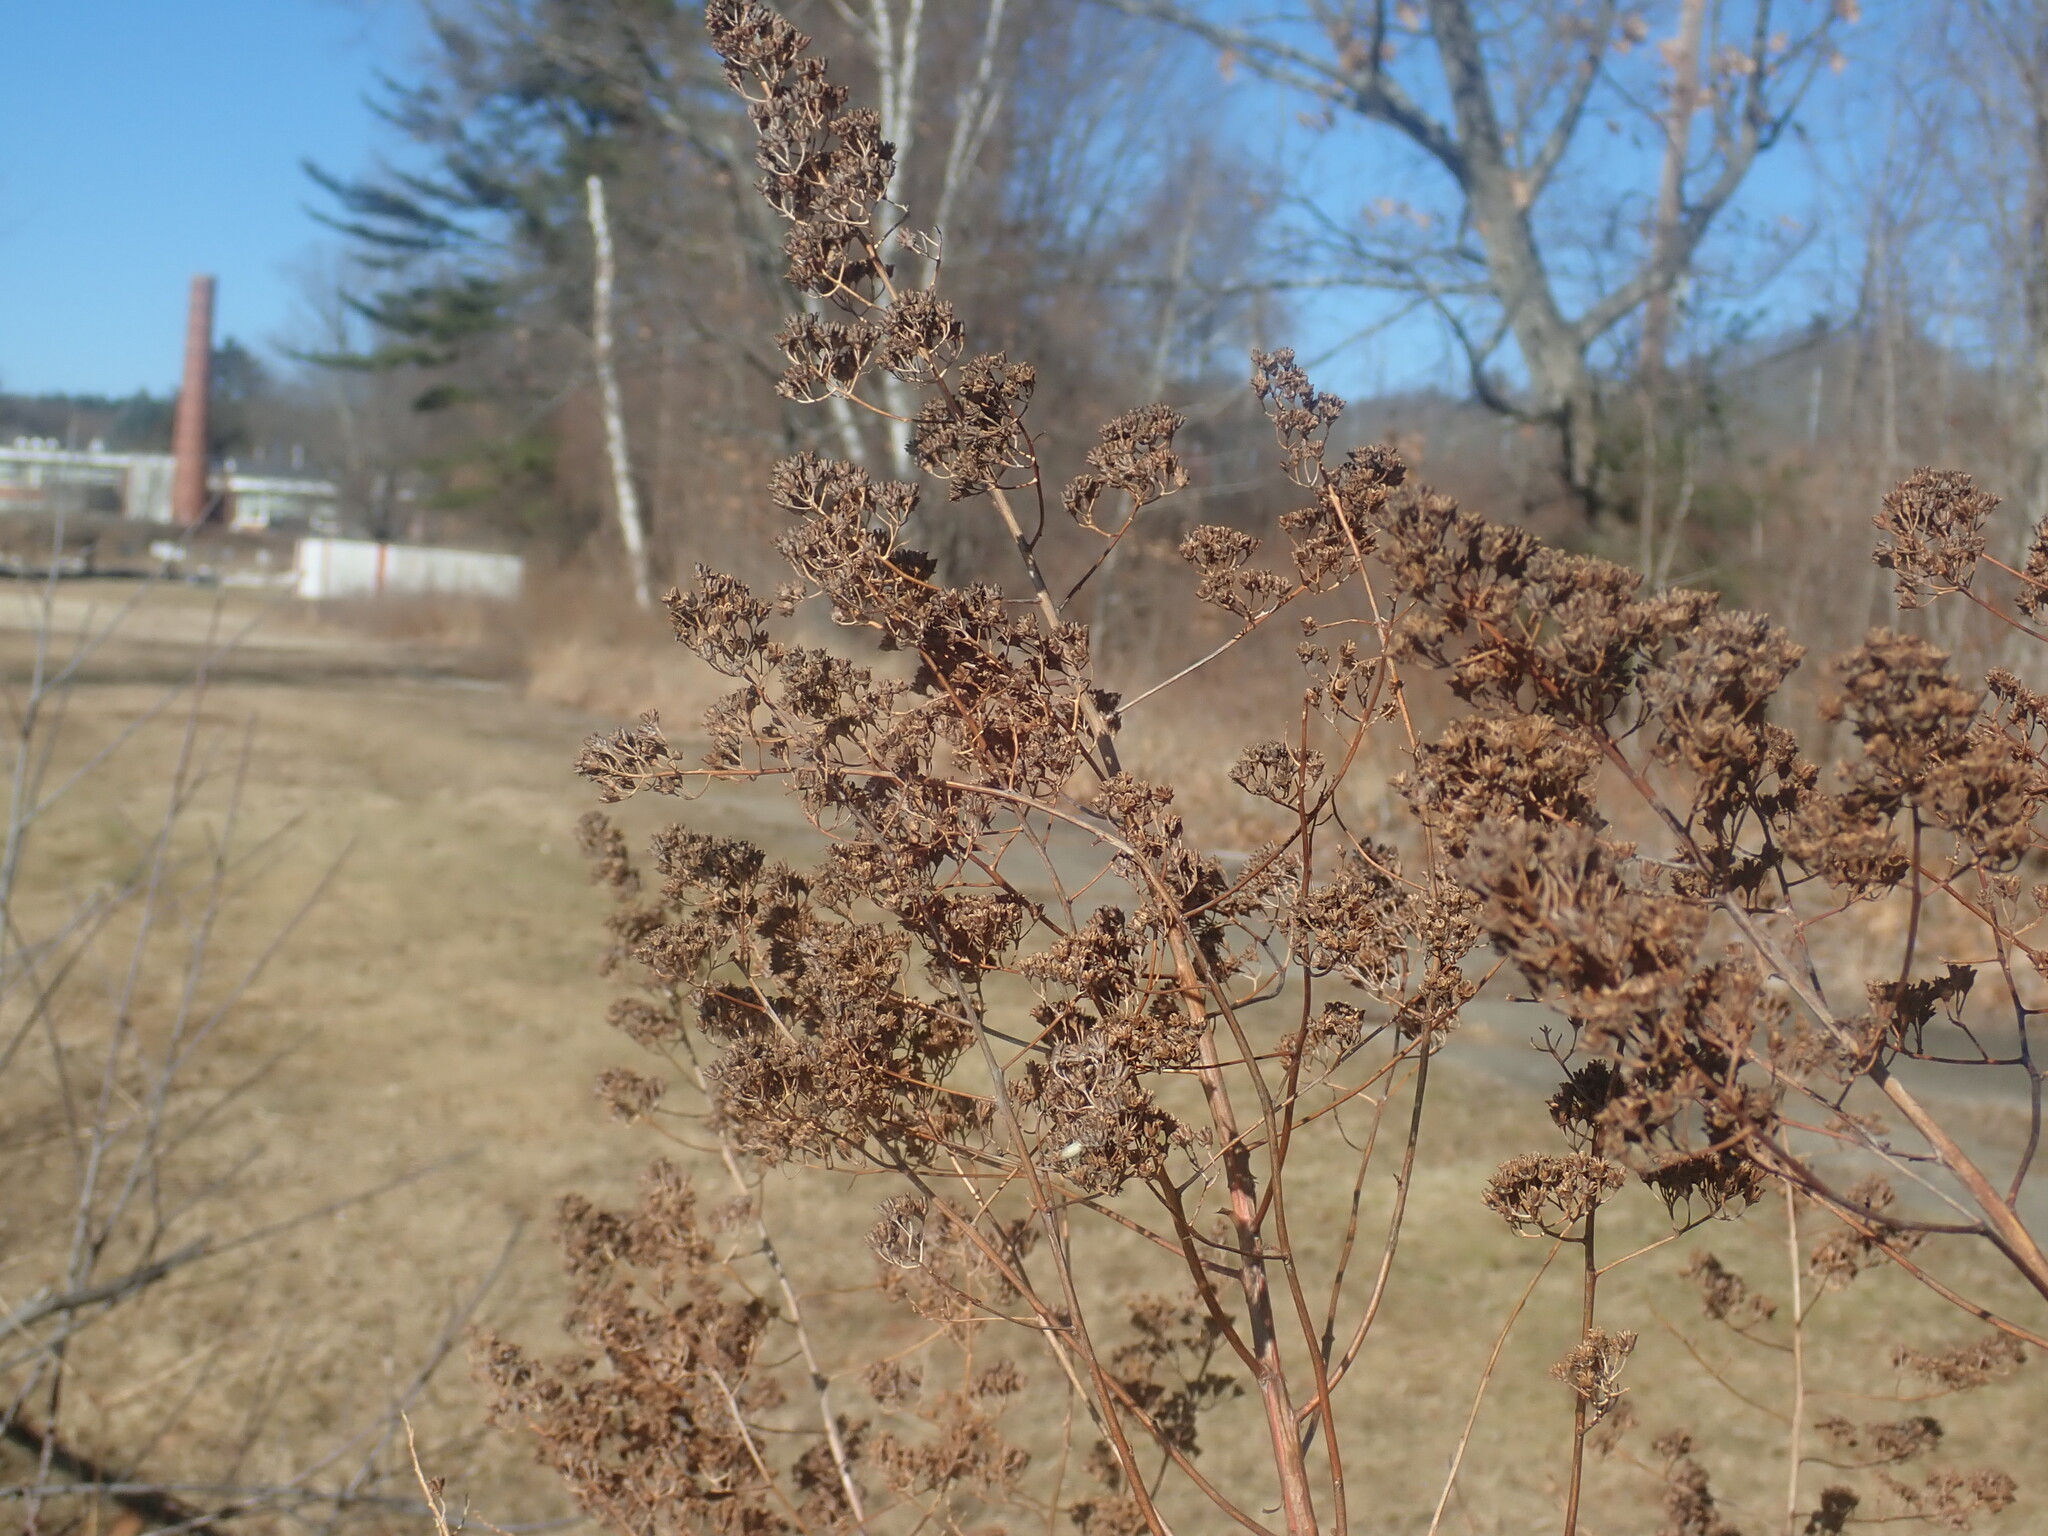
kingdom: Plantae
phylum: Tracheophyta
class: Magnoliopsida
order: Rosales
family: Rosaceae
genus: Spiraea
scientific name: Spiraea alba
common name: Pale bridewort
